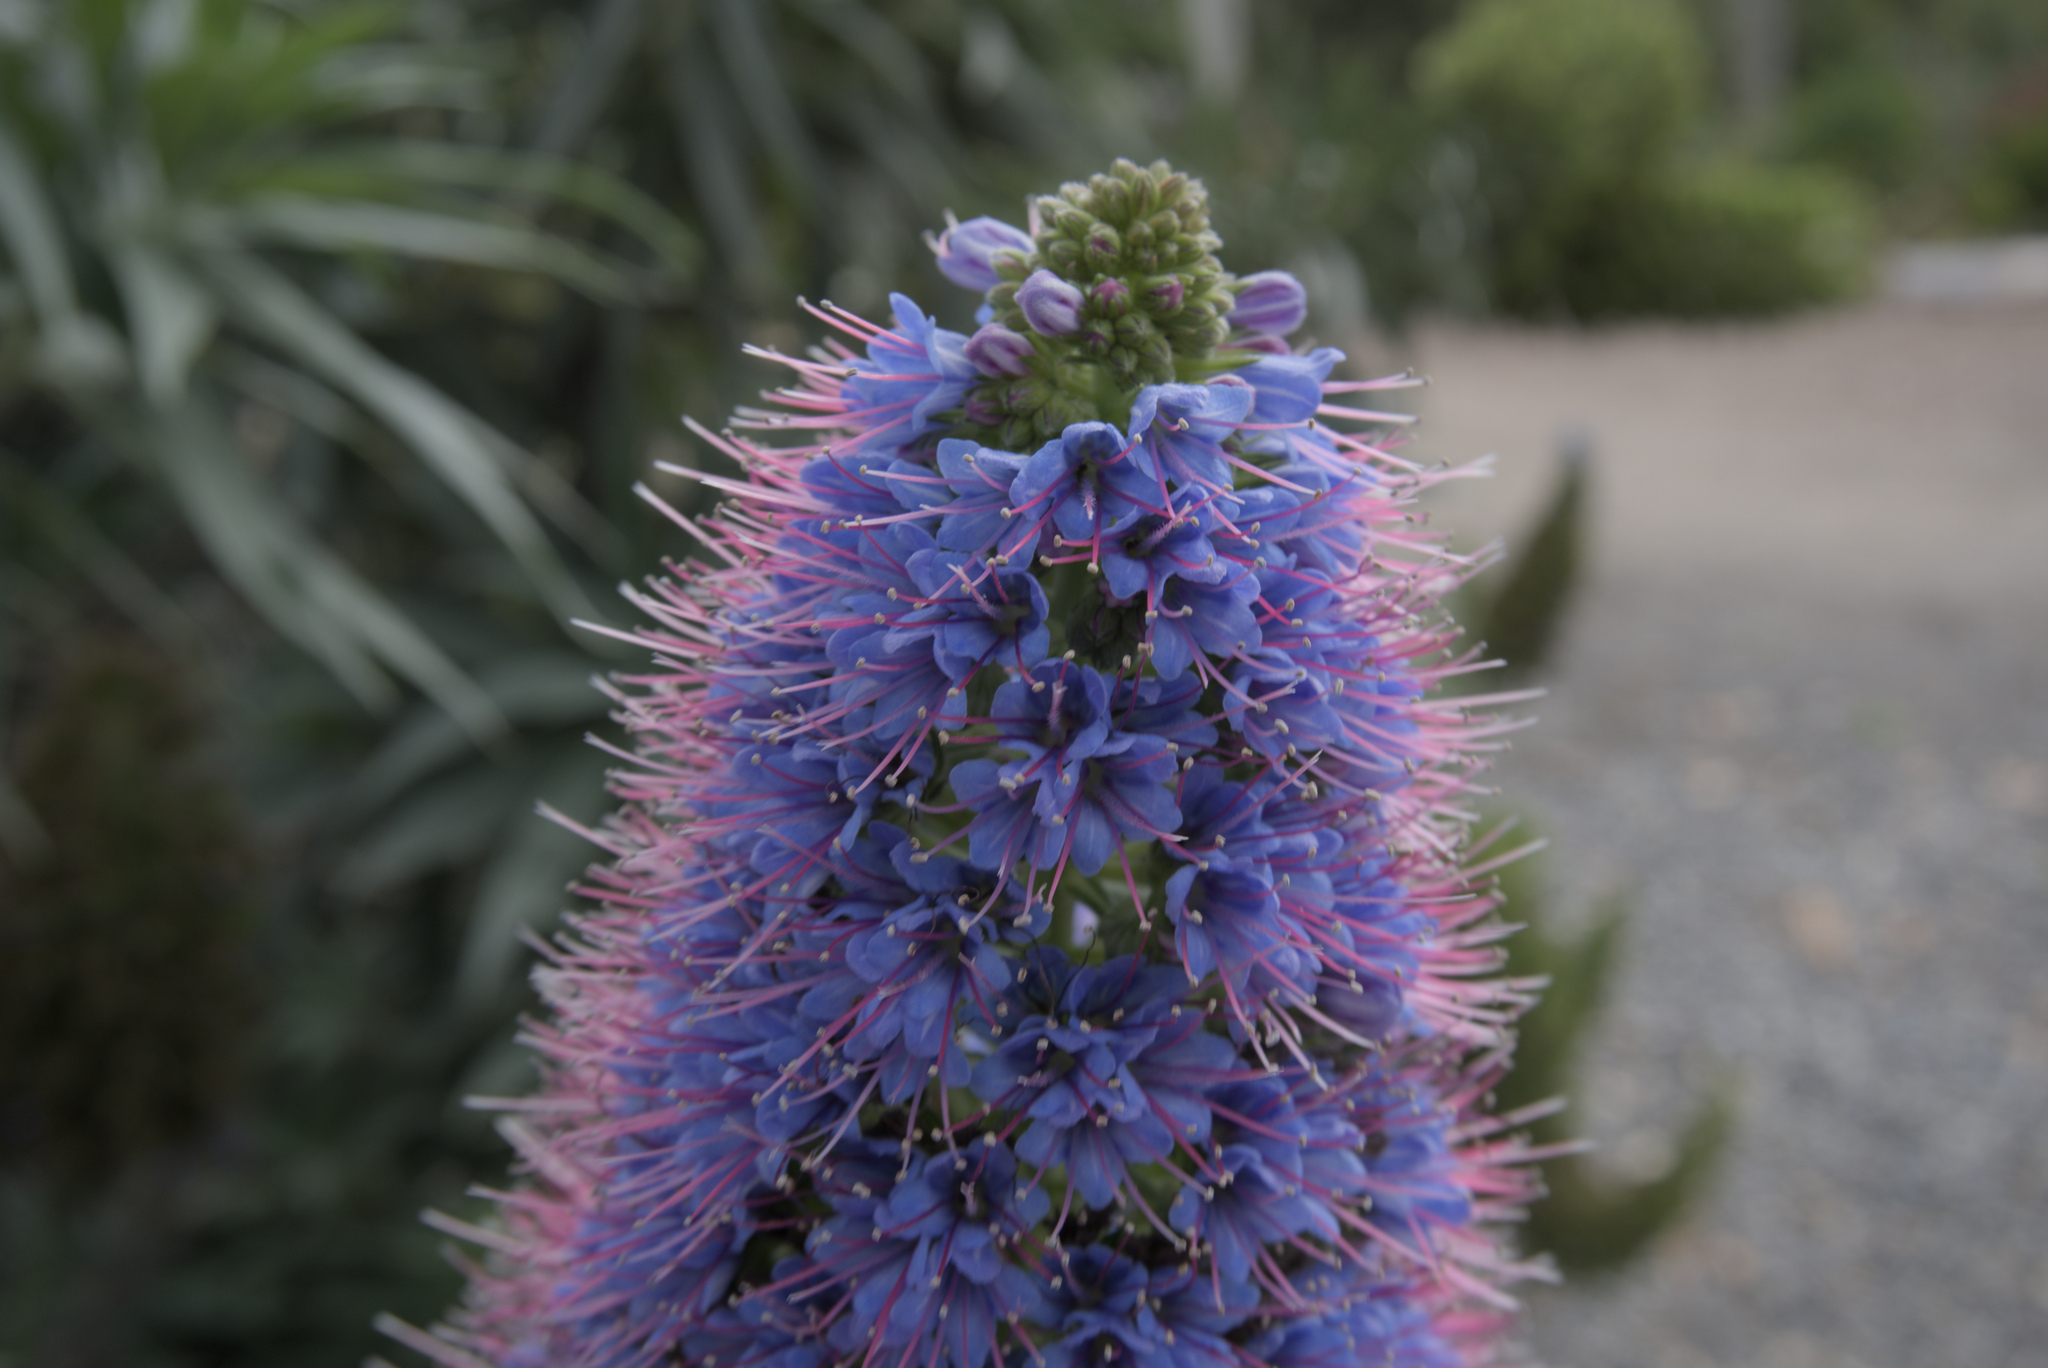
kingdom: Plantae
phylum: Tracheophyta
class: Magnoliopsida
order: Boraginales
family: Boraginaceae
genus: Echium
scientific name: Echium candicans
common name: Pride of madeira
